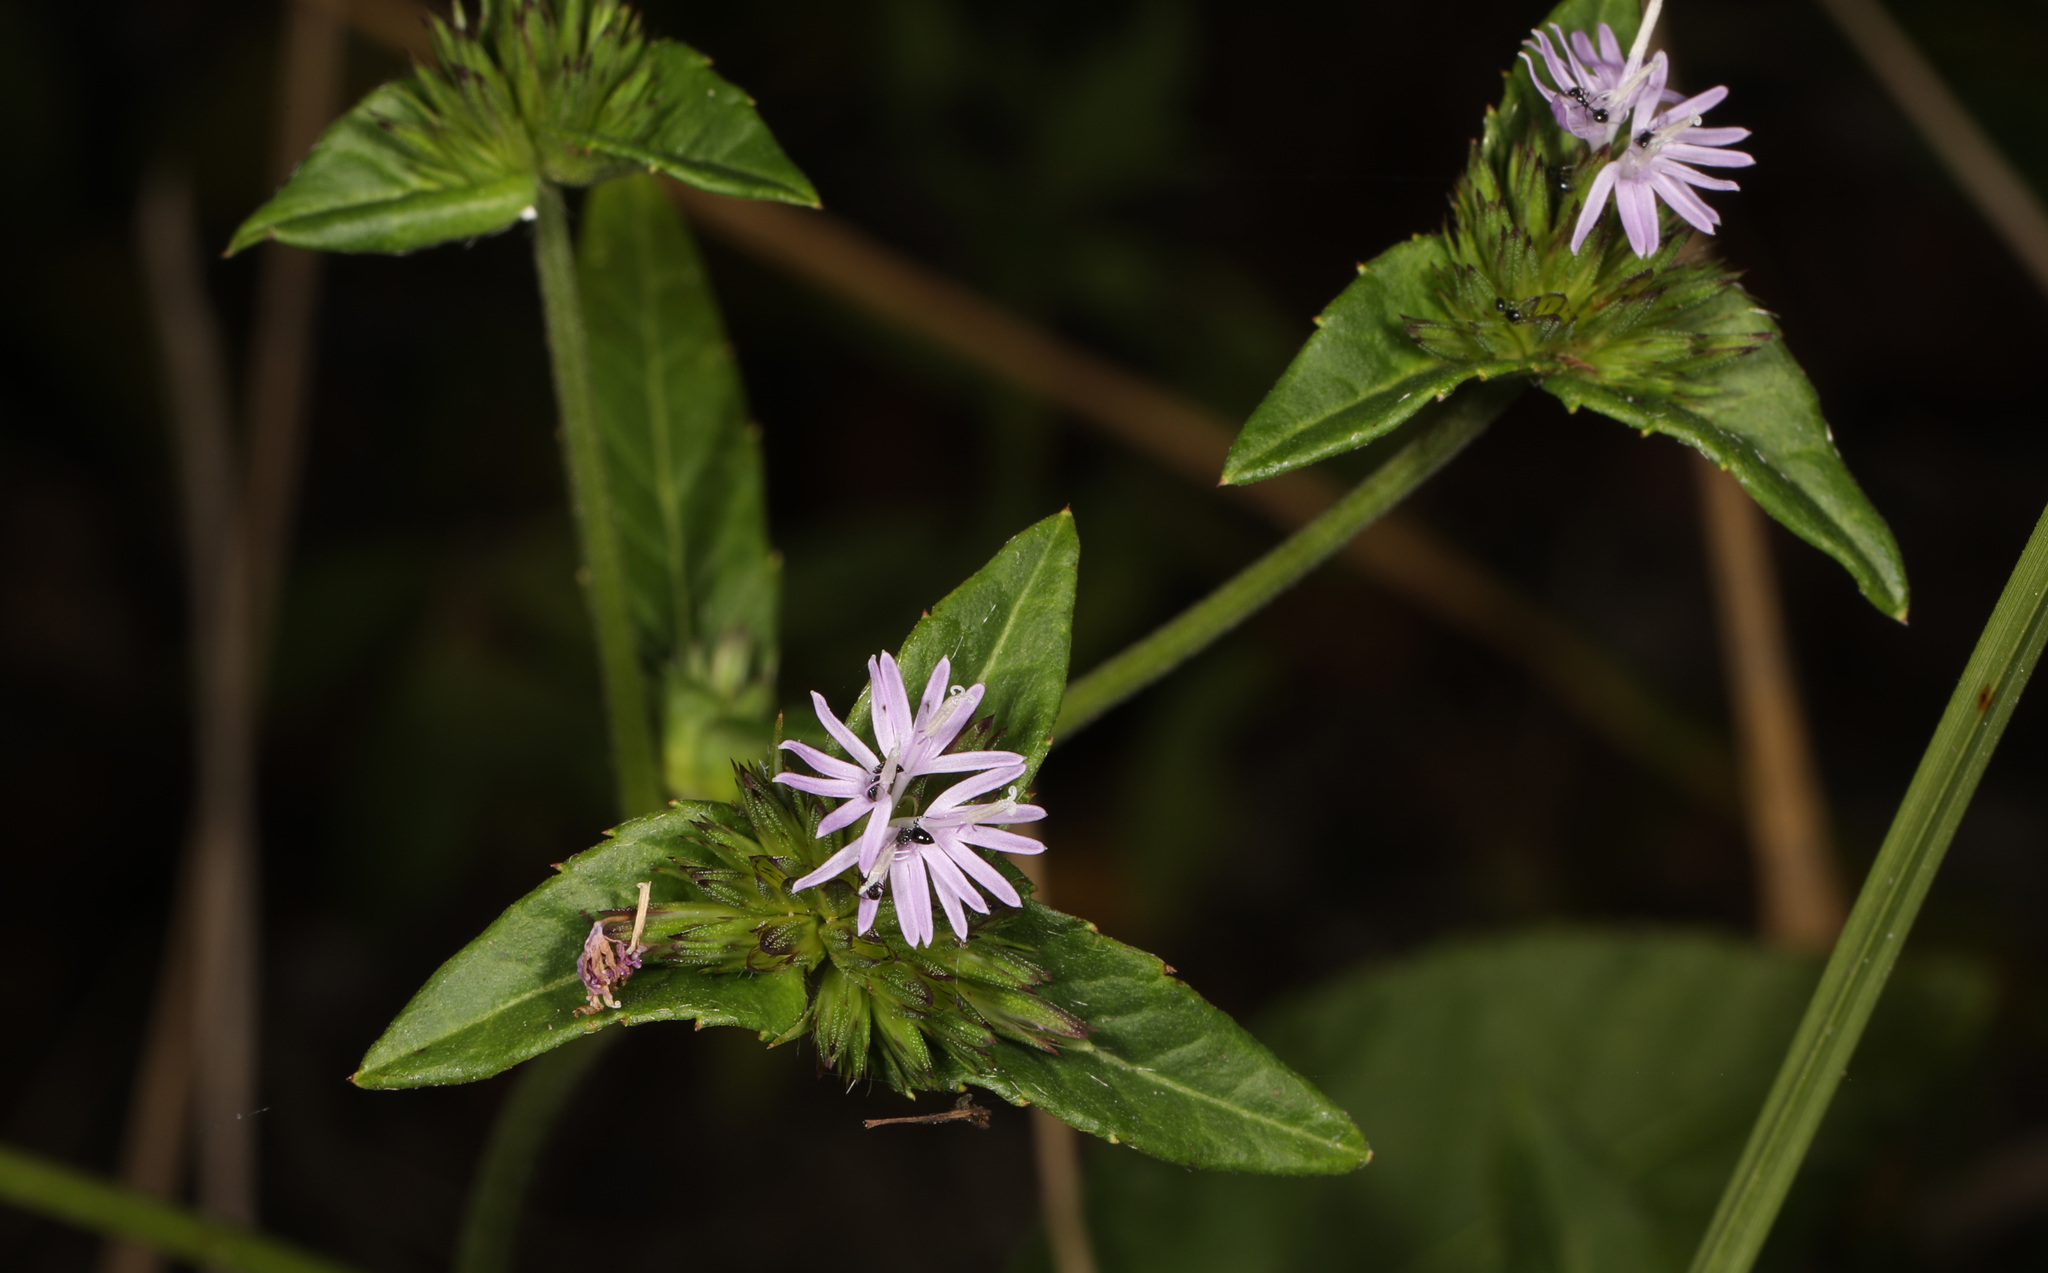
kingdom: Plantae
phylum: Tracheophyta
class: Magnoliopsida
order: Asterales
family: Asteraceae
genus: Elephantopus
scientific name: Elephantopus carolinianus
